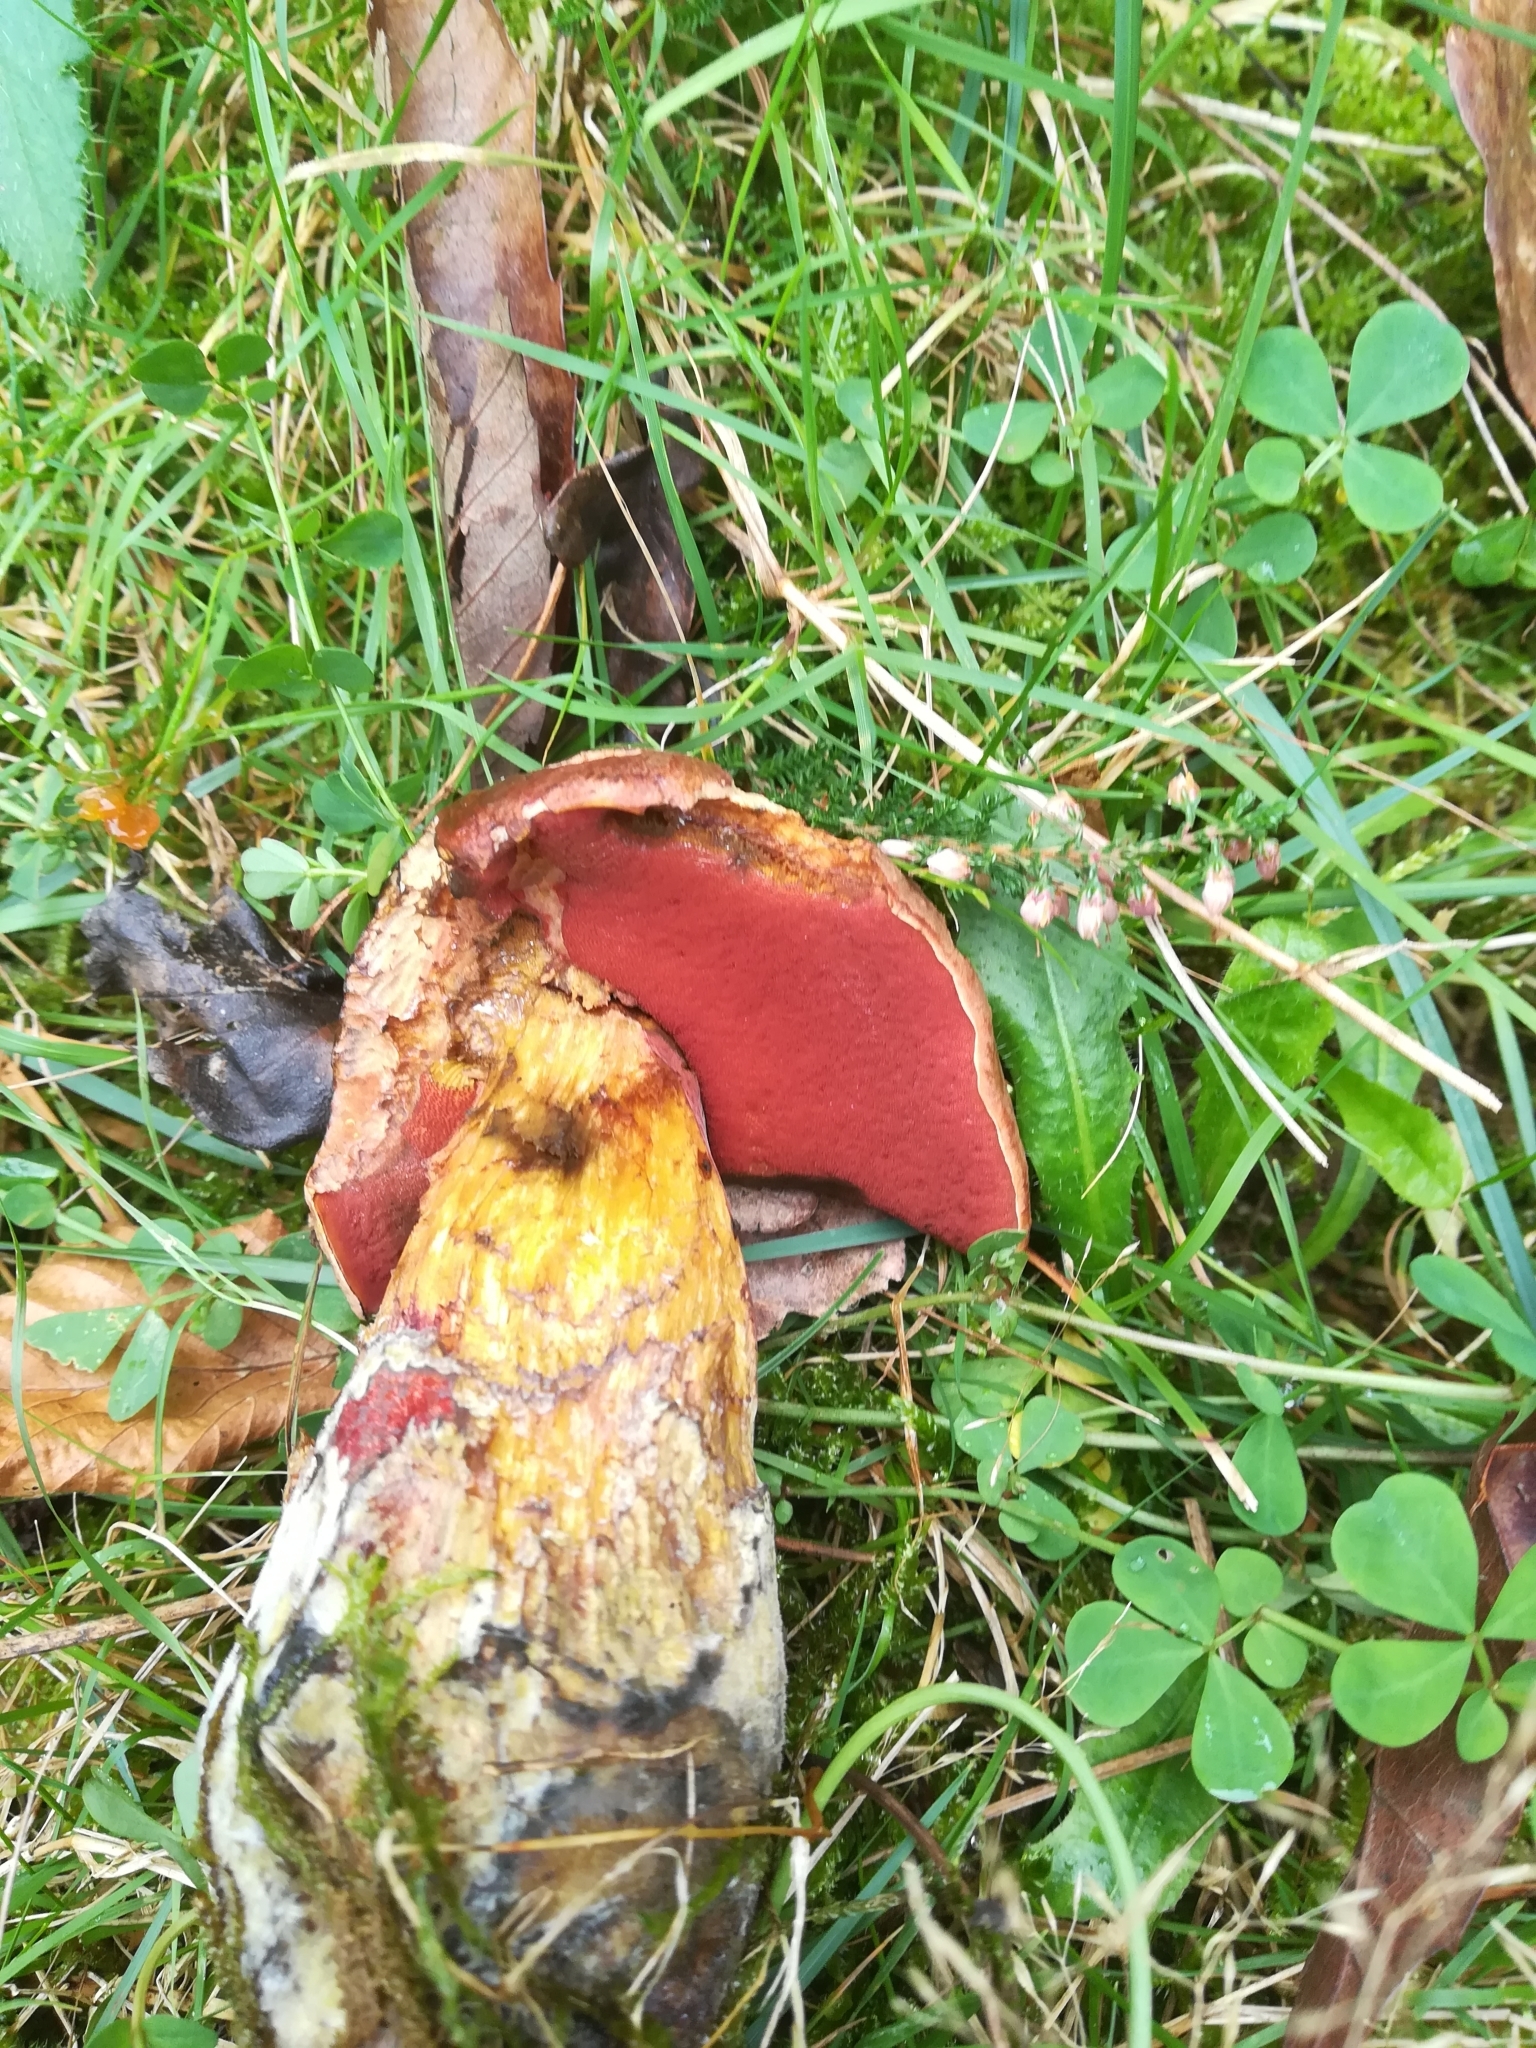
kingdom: Fungi
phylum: Basidiomycota
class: Agaricomycetes
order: Boletales
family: Boletaceae
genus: Neoboletus
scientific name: Neoboletus luridiformis
